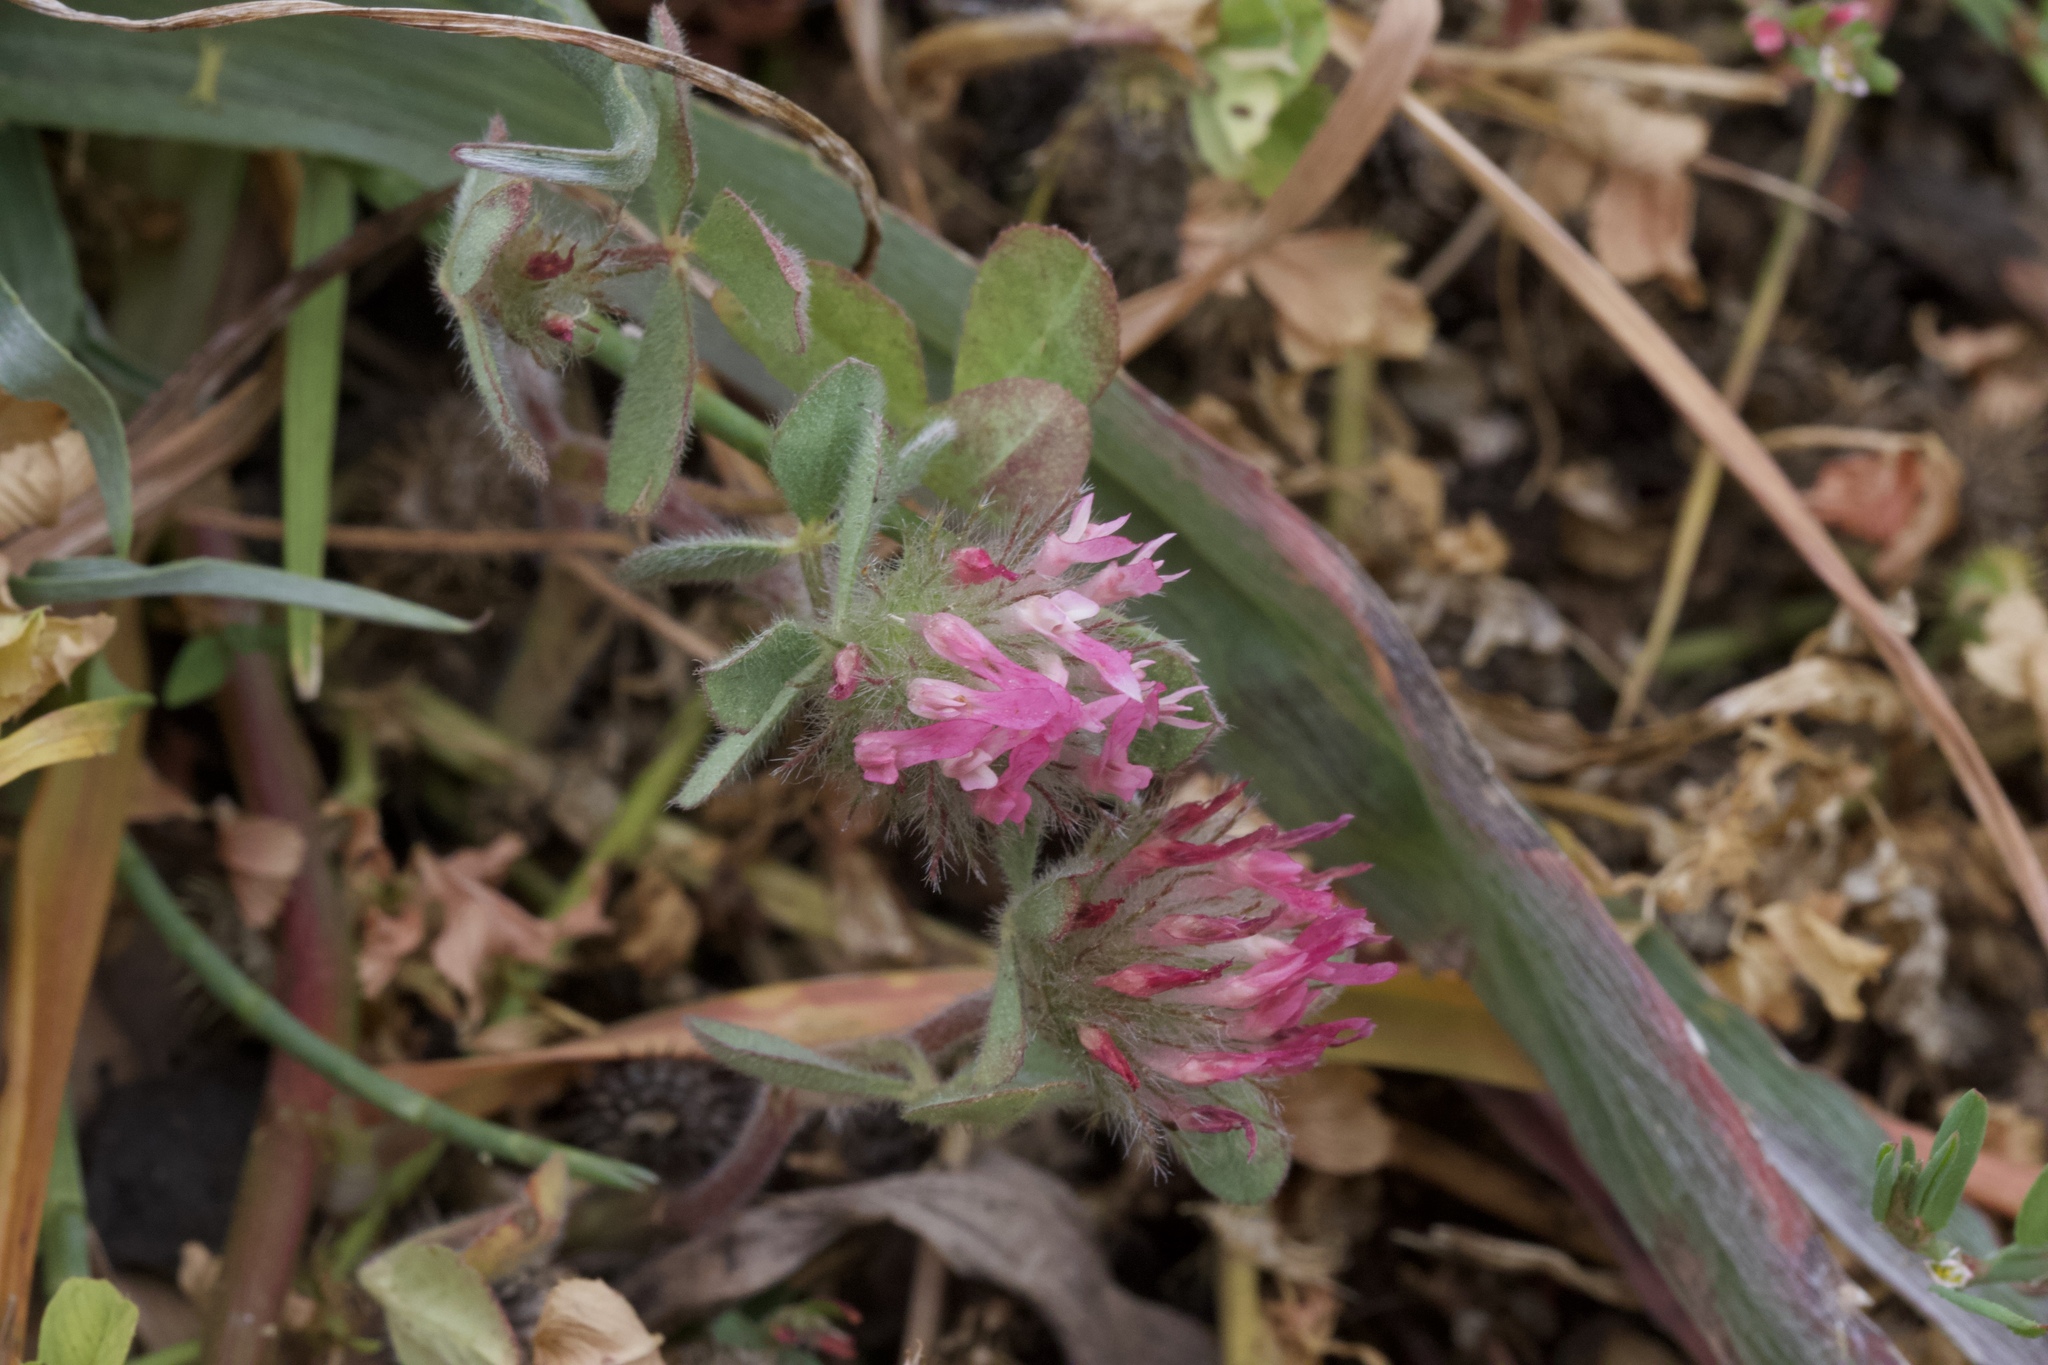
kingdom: Plantae
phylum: Tracheophyta
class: Magnoliopsida
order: Fabales
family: Fabaceae
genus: Trifolium
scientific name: Trifolium hirtum
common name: Rose clover
